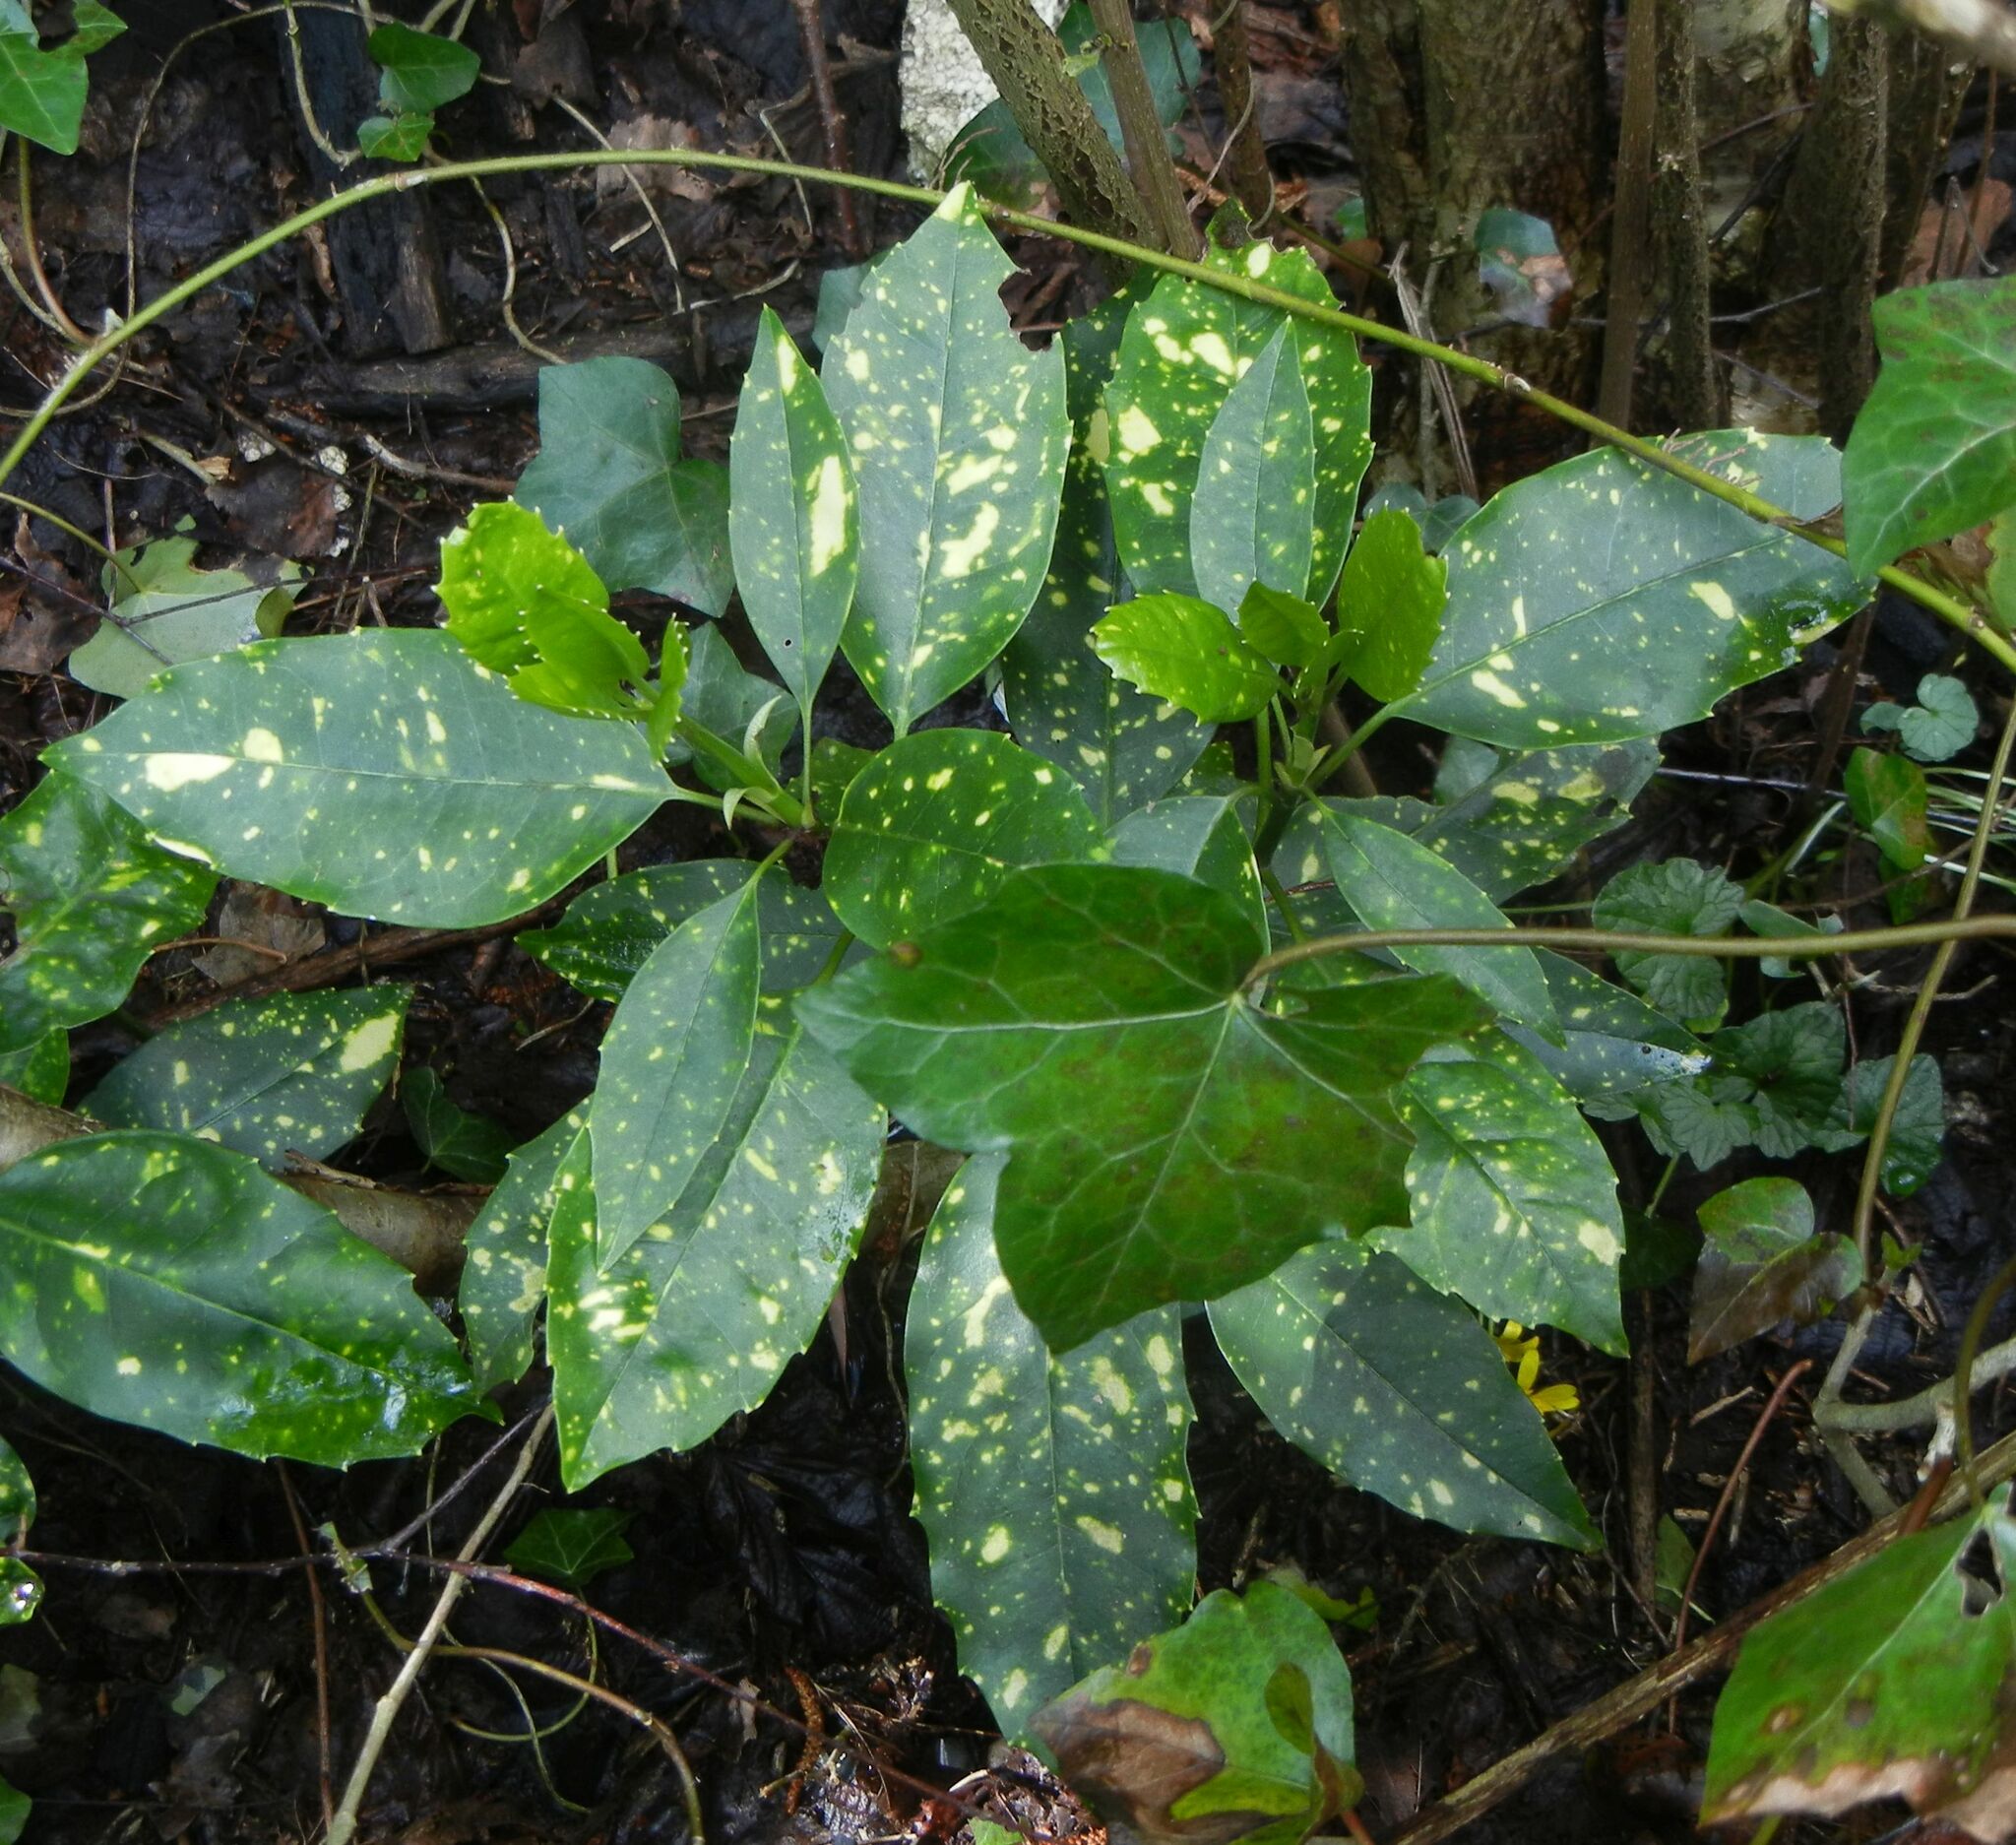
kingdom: Plantae
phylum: Tracheophyta
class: Magnoliopsida
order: Garryales
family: Garryaceae
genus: Aucuba
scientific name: Aucuba japonica
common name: Spotted-laurel
